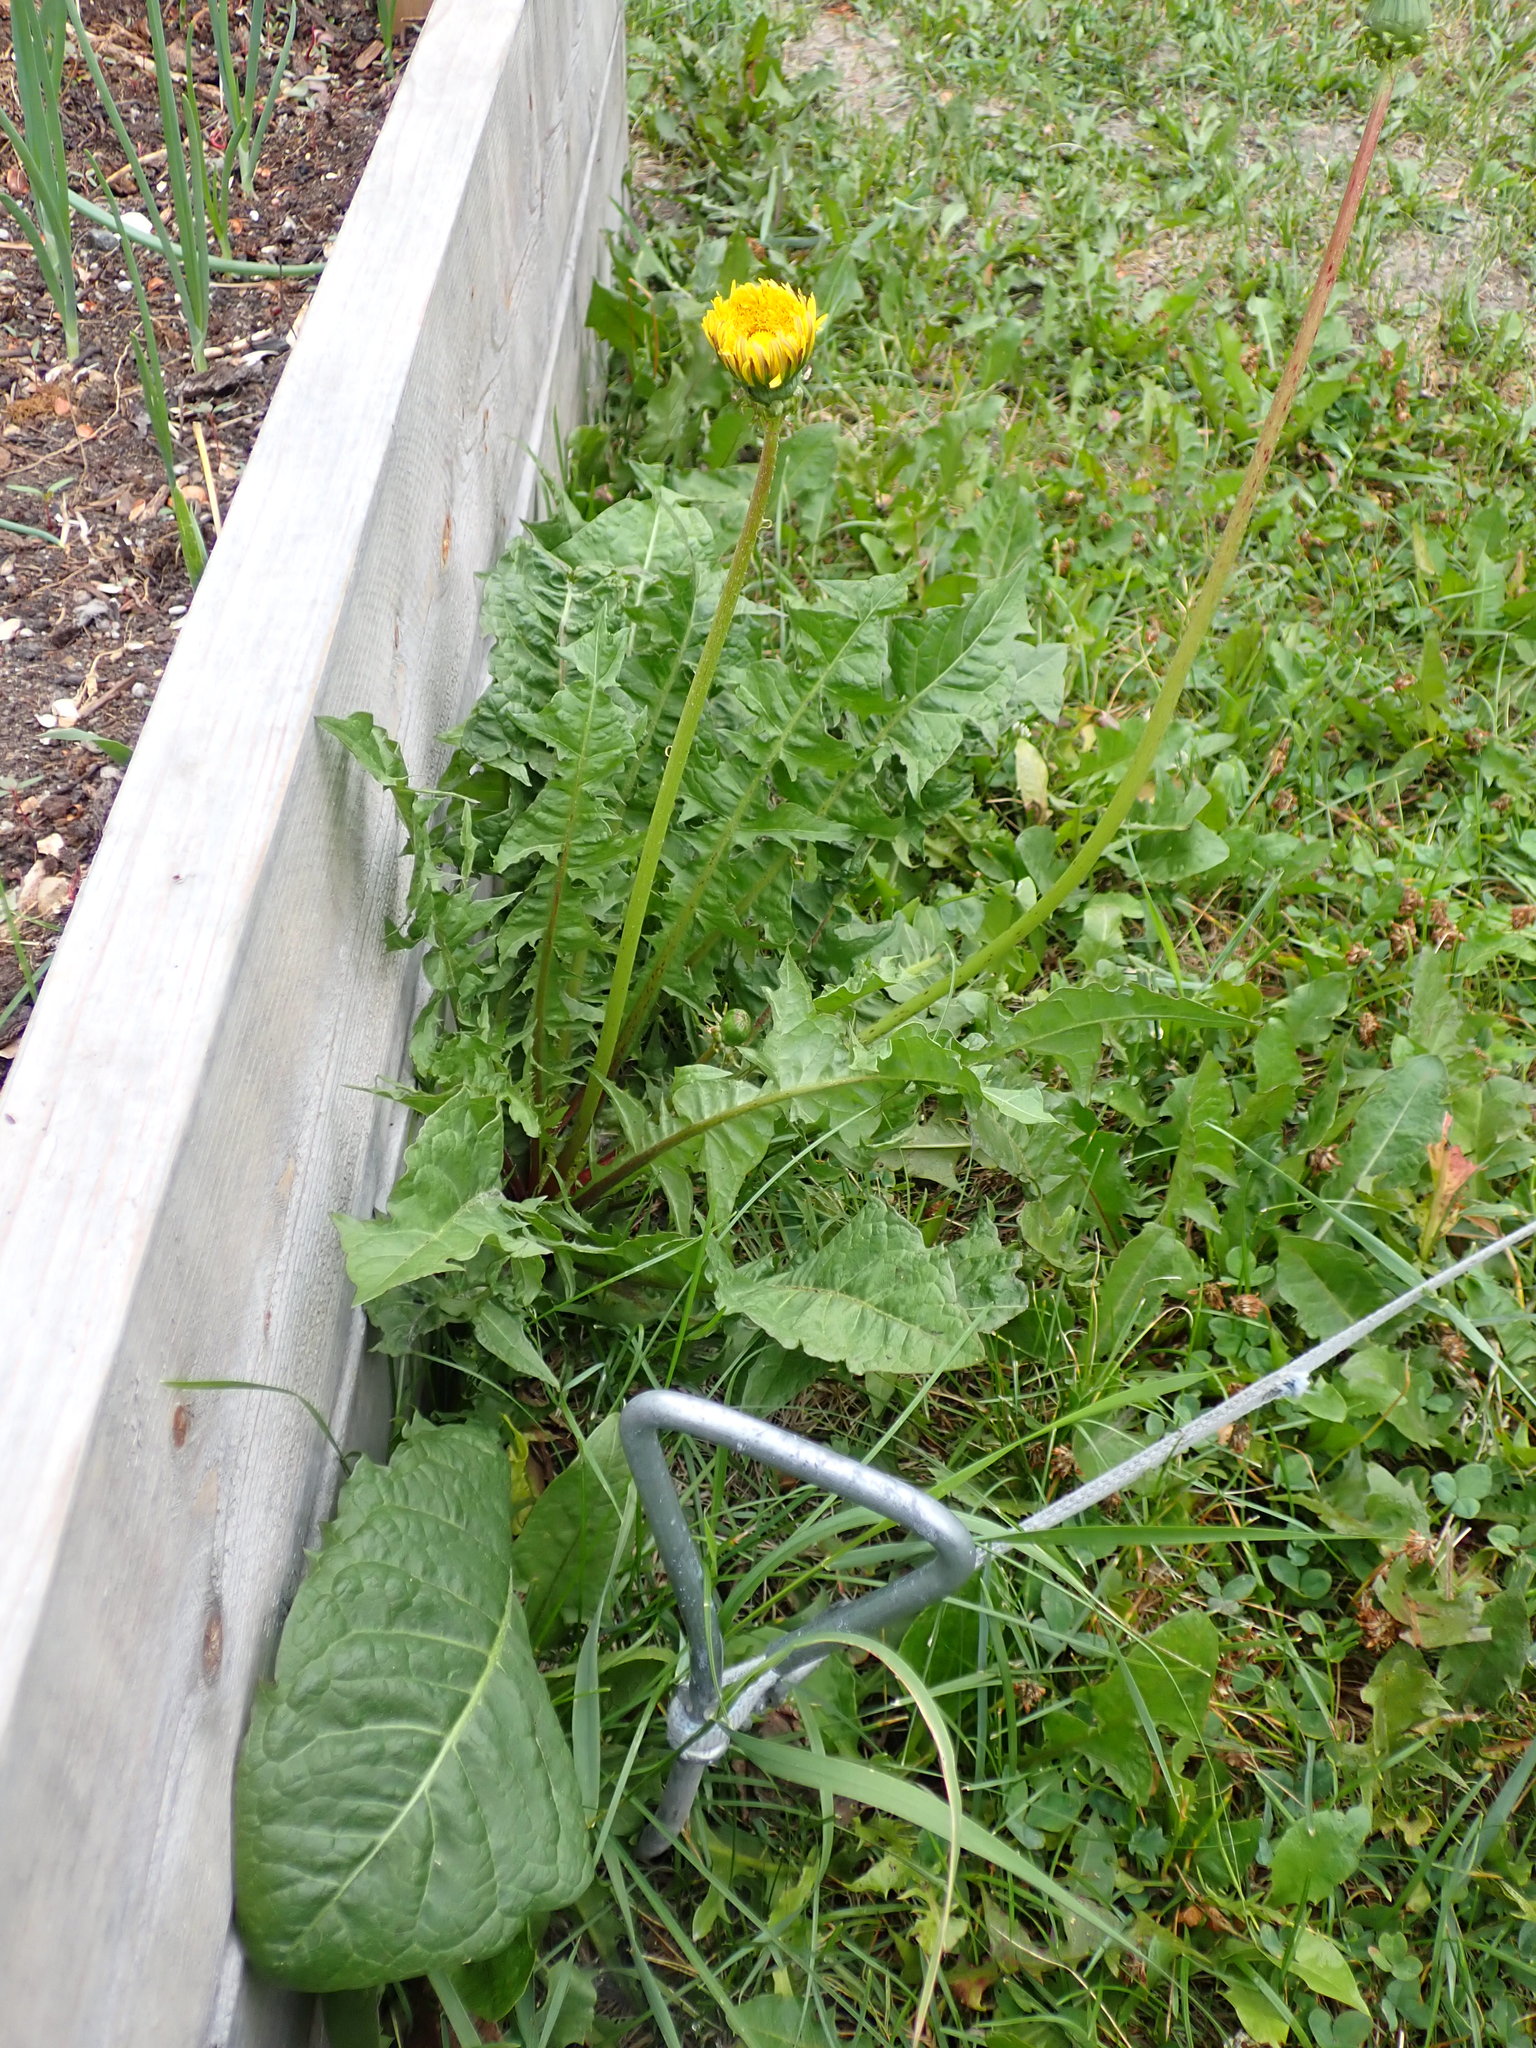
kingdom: Plantae
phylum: Tracheophyta
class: Magnoliopsida
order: Asterales
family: Asteraceae
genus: Taraxacum
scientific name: Taraxacum officinale
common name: Common dandelion
